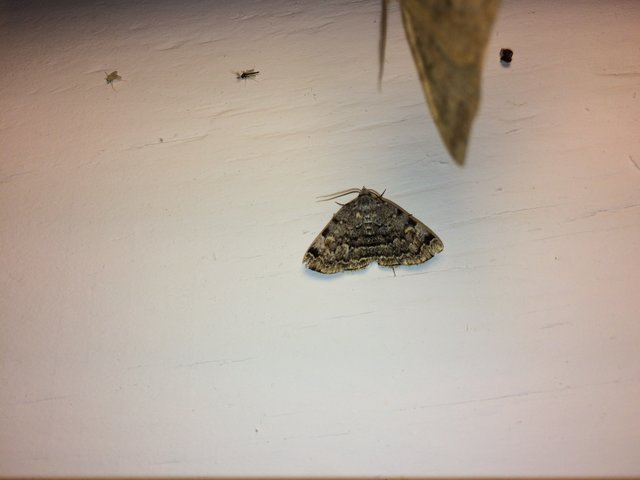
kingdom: Animalia
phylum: Arthropoda
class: Insecta
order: Lepidoptera
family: Erebidae
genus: Idia
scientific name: Idia americalis
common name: American idia moth
